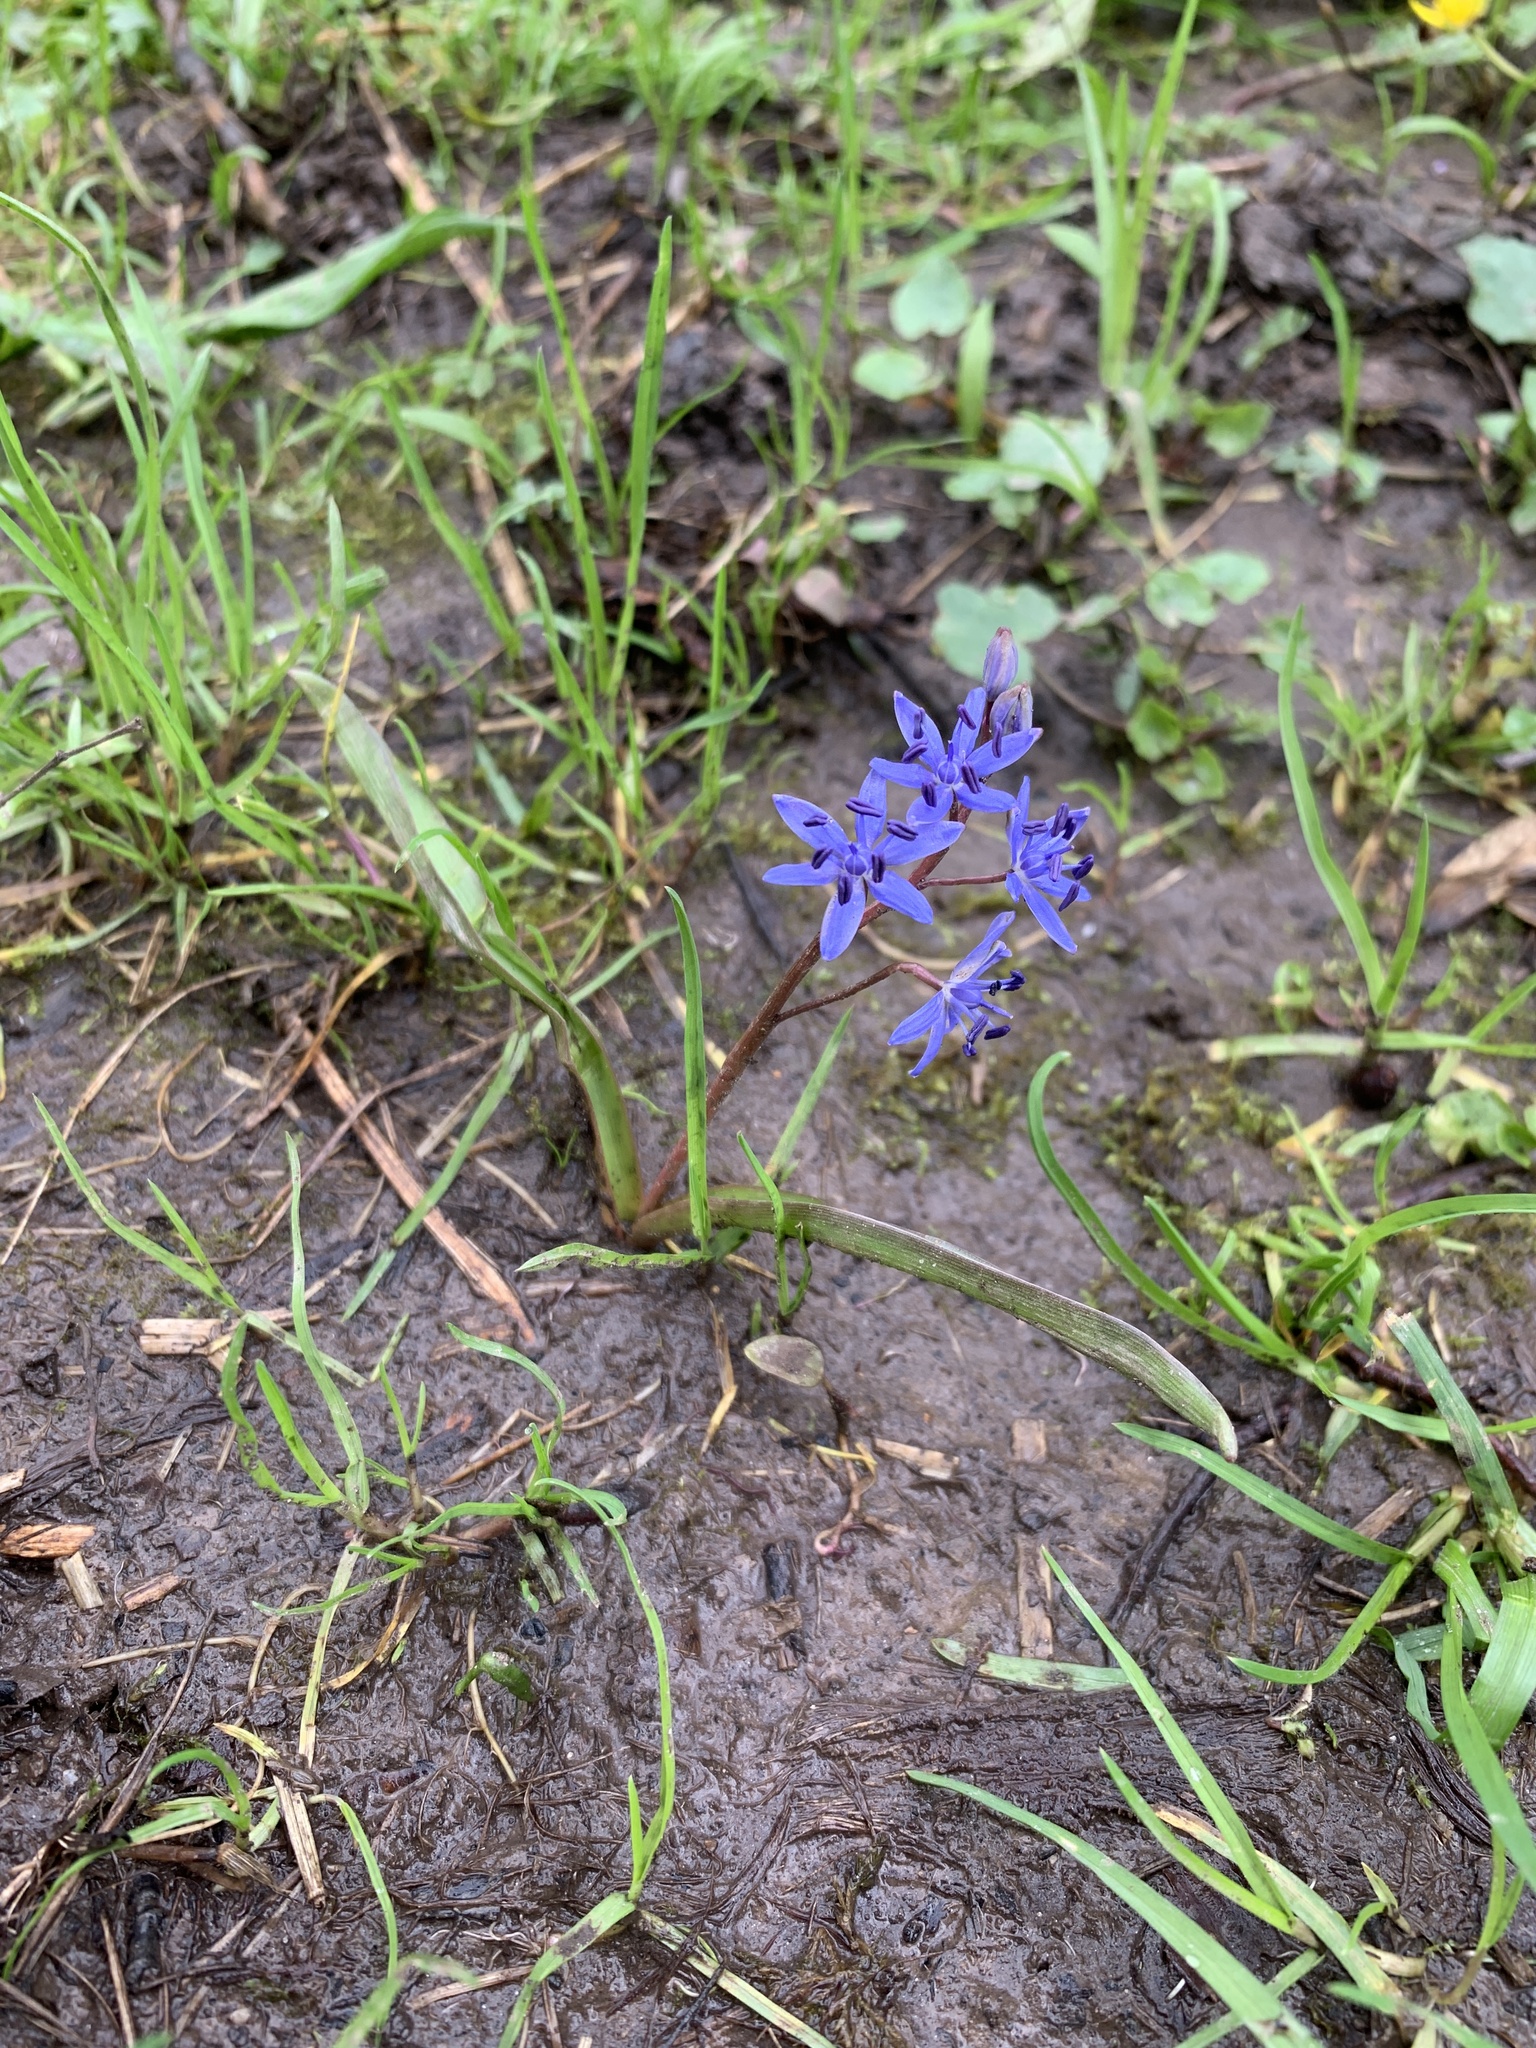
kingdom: Plantae
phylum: Tracheophyta
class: Liliopsida
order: Asparagales
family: Asparagaceae
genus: Scilla
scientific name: Scilla vindobonensis
